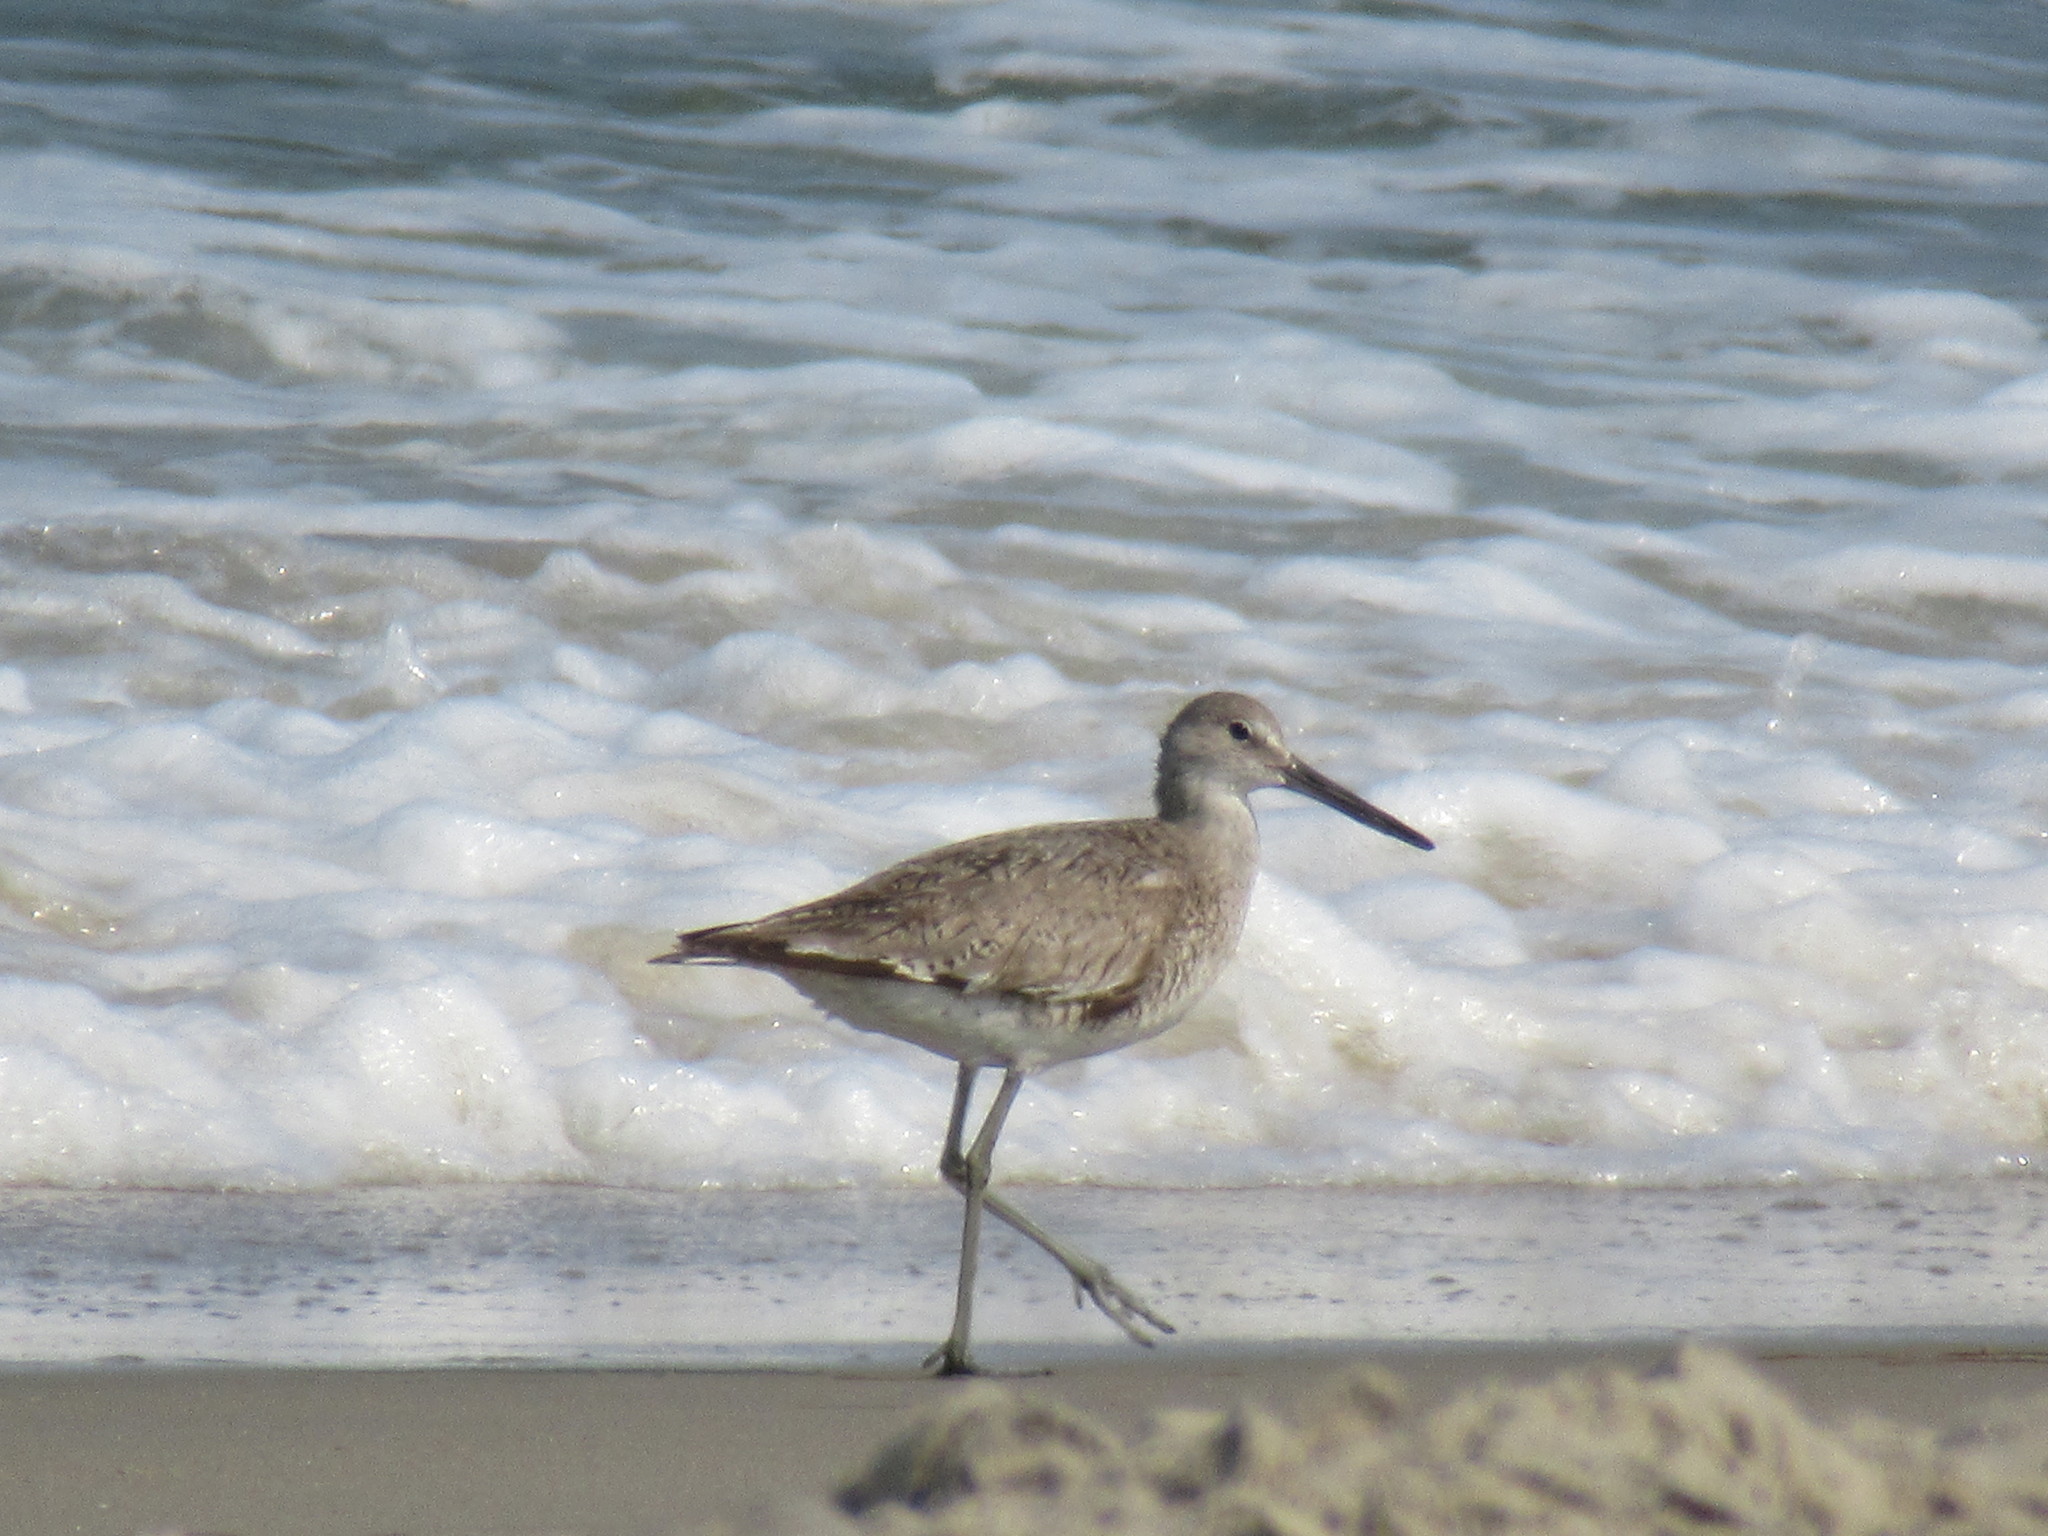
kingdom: Animalia
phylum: Chordata
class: Aves
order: Charadriiformes
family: Scolopacidae
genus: Tringa
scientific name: Tringa semipalmata
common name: Willet
